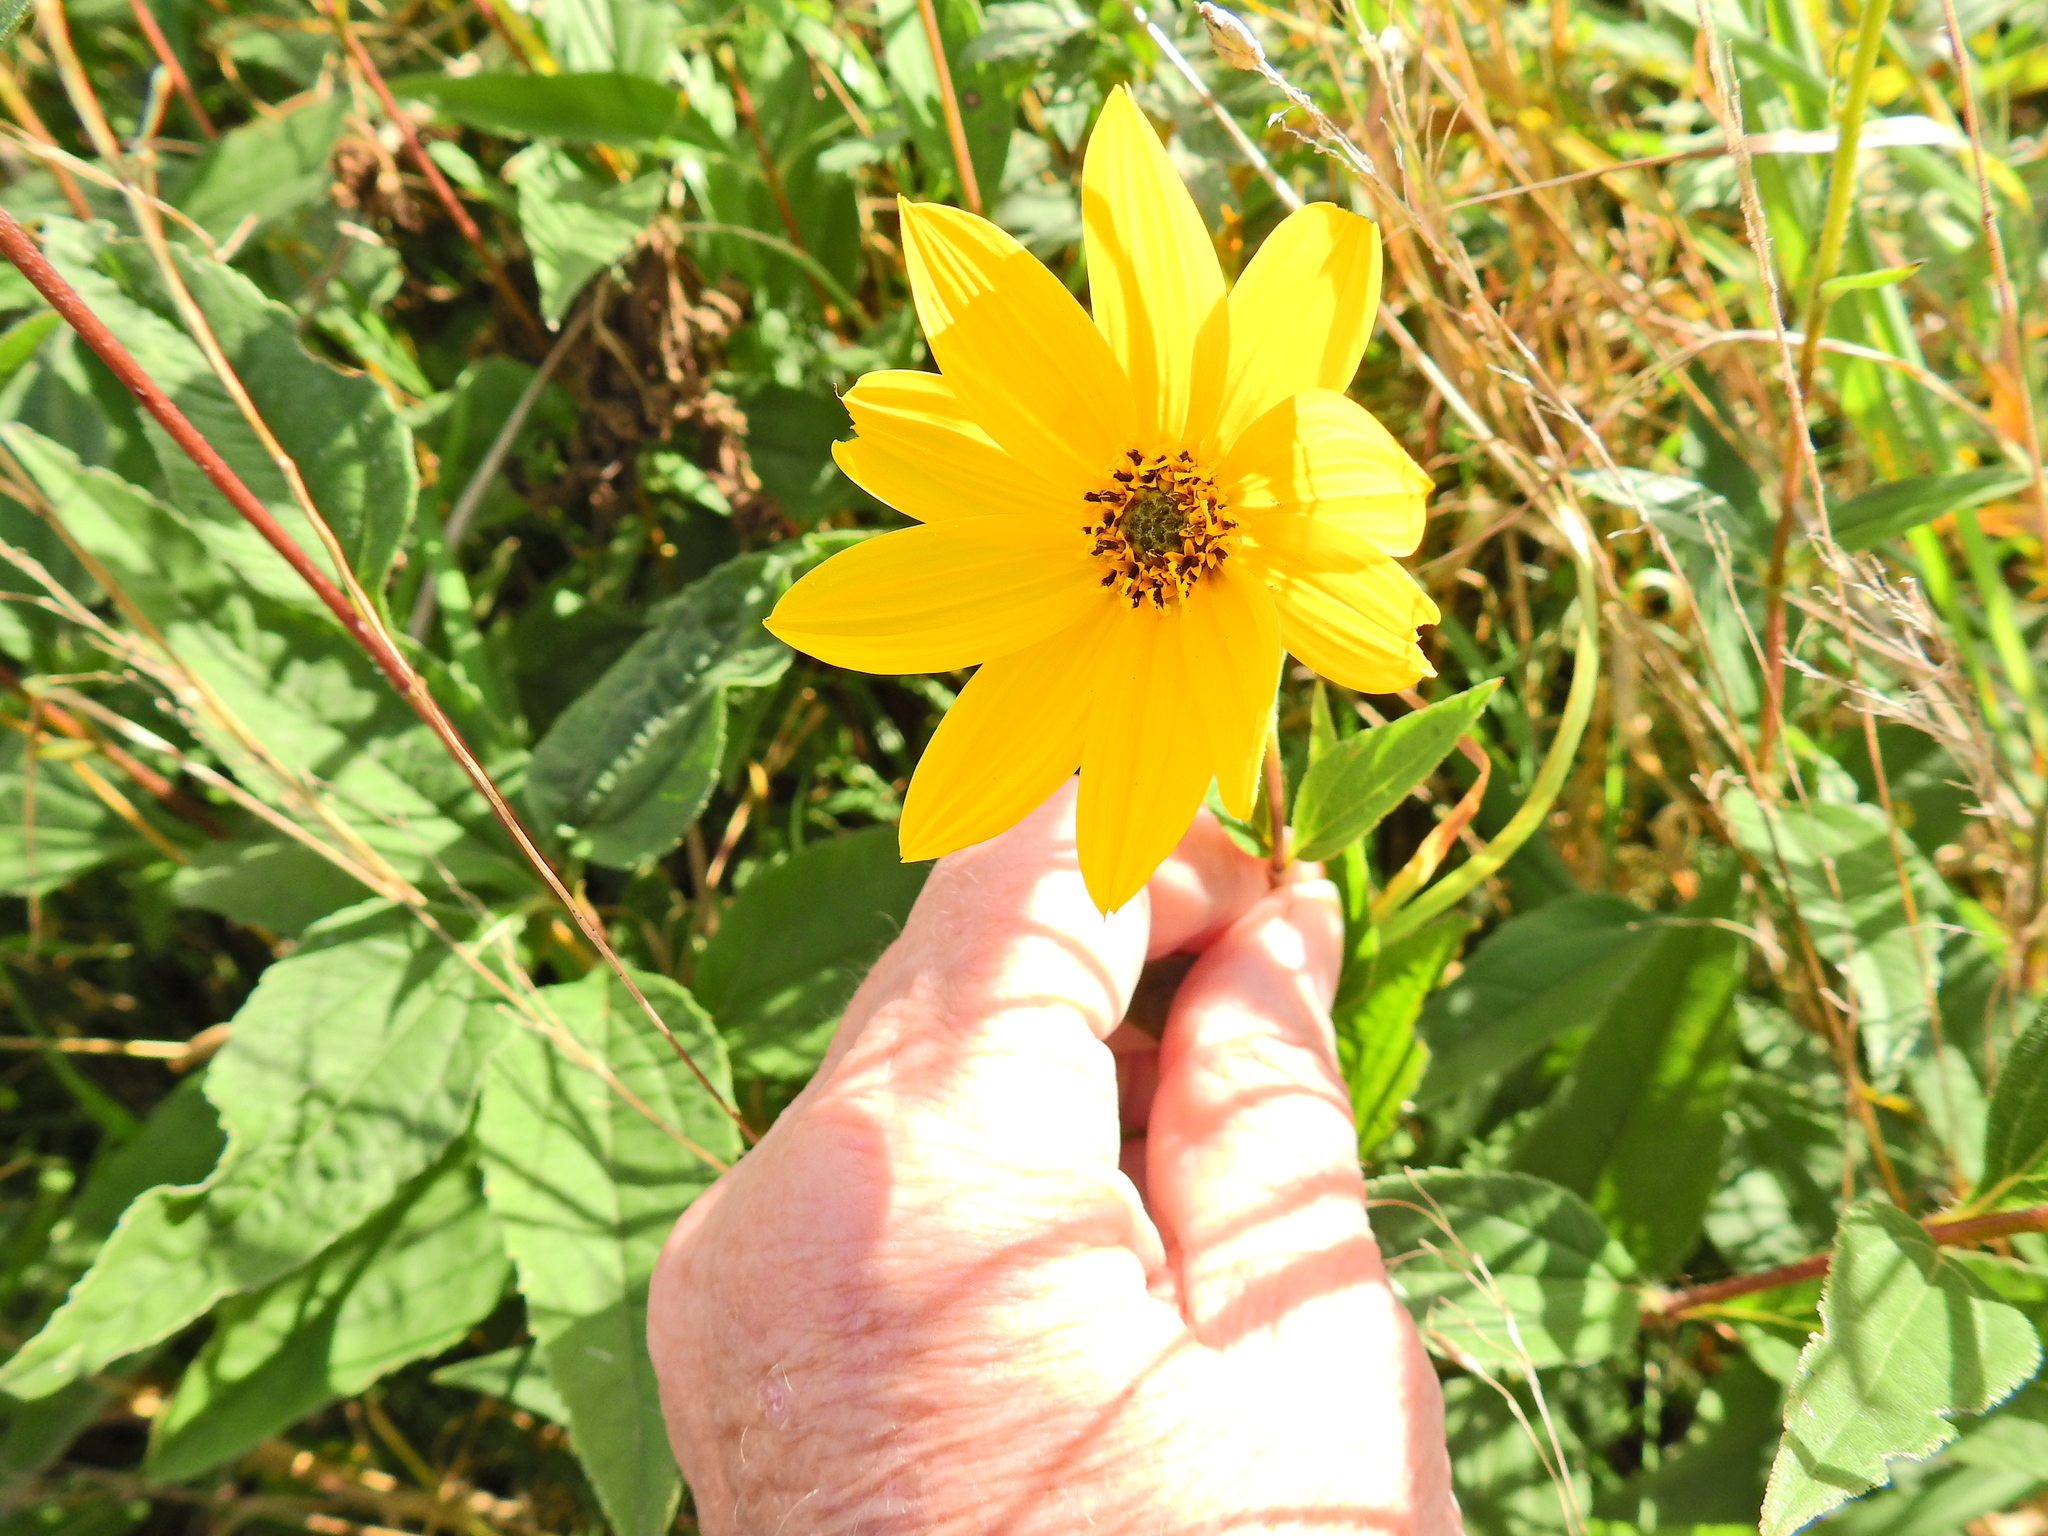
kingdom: Plantae
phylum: Tracheophyta
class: Magnoliopsida
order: Asterales
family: Asteraceae
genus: Helianthus
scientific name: Helianthus tuberosus
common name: Jerusalem artichoke
